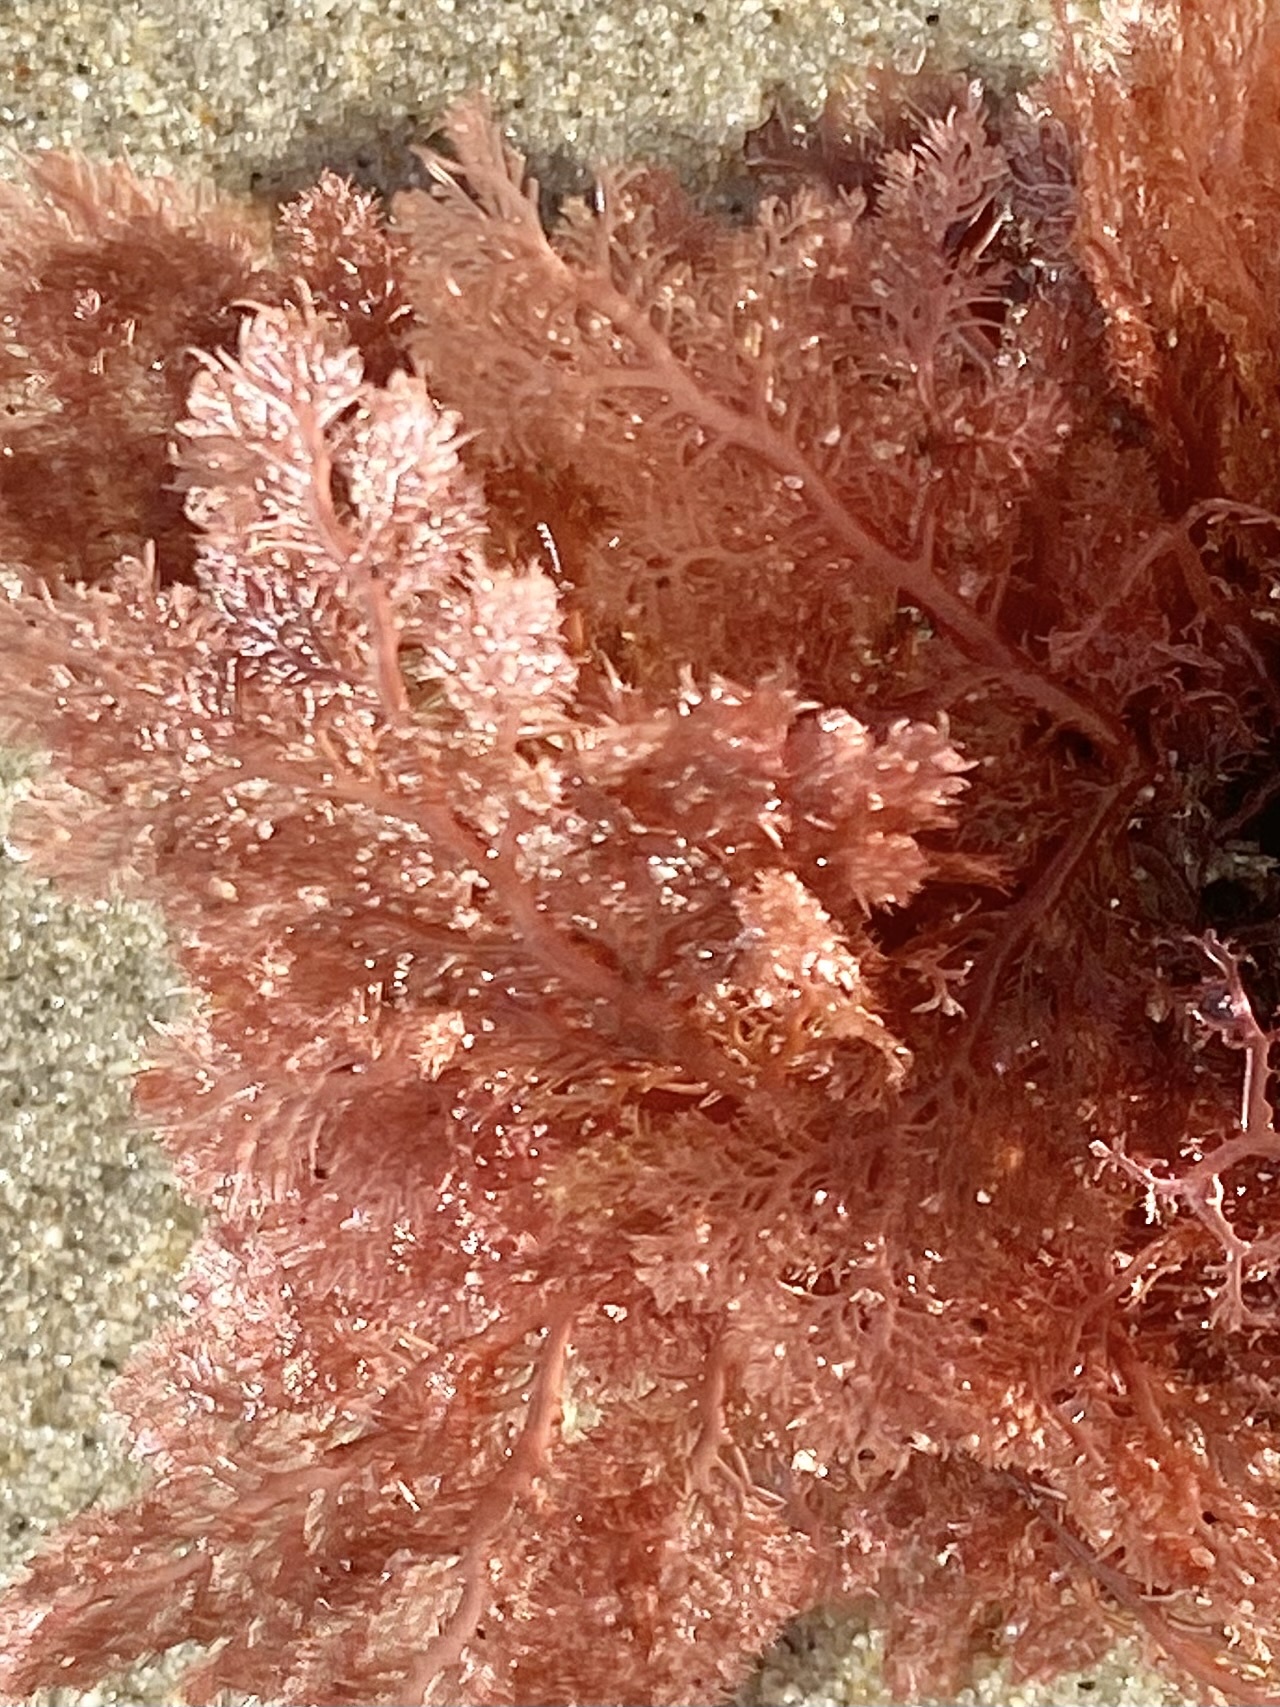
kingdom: Plantae
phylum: Rhodophyta
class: Florideophyceae
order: Plocamiales
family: Plocamiaceae
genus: Plocamium
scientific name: Plocamium cartilagineum
